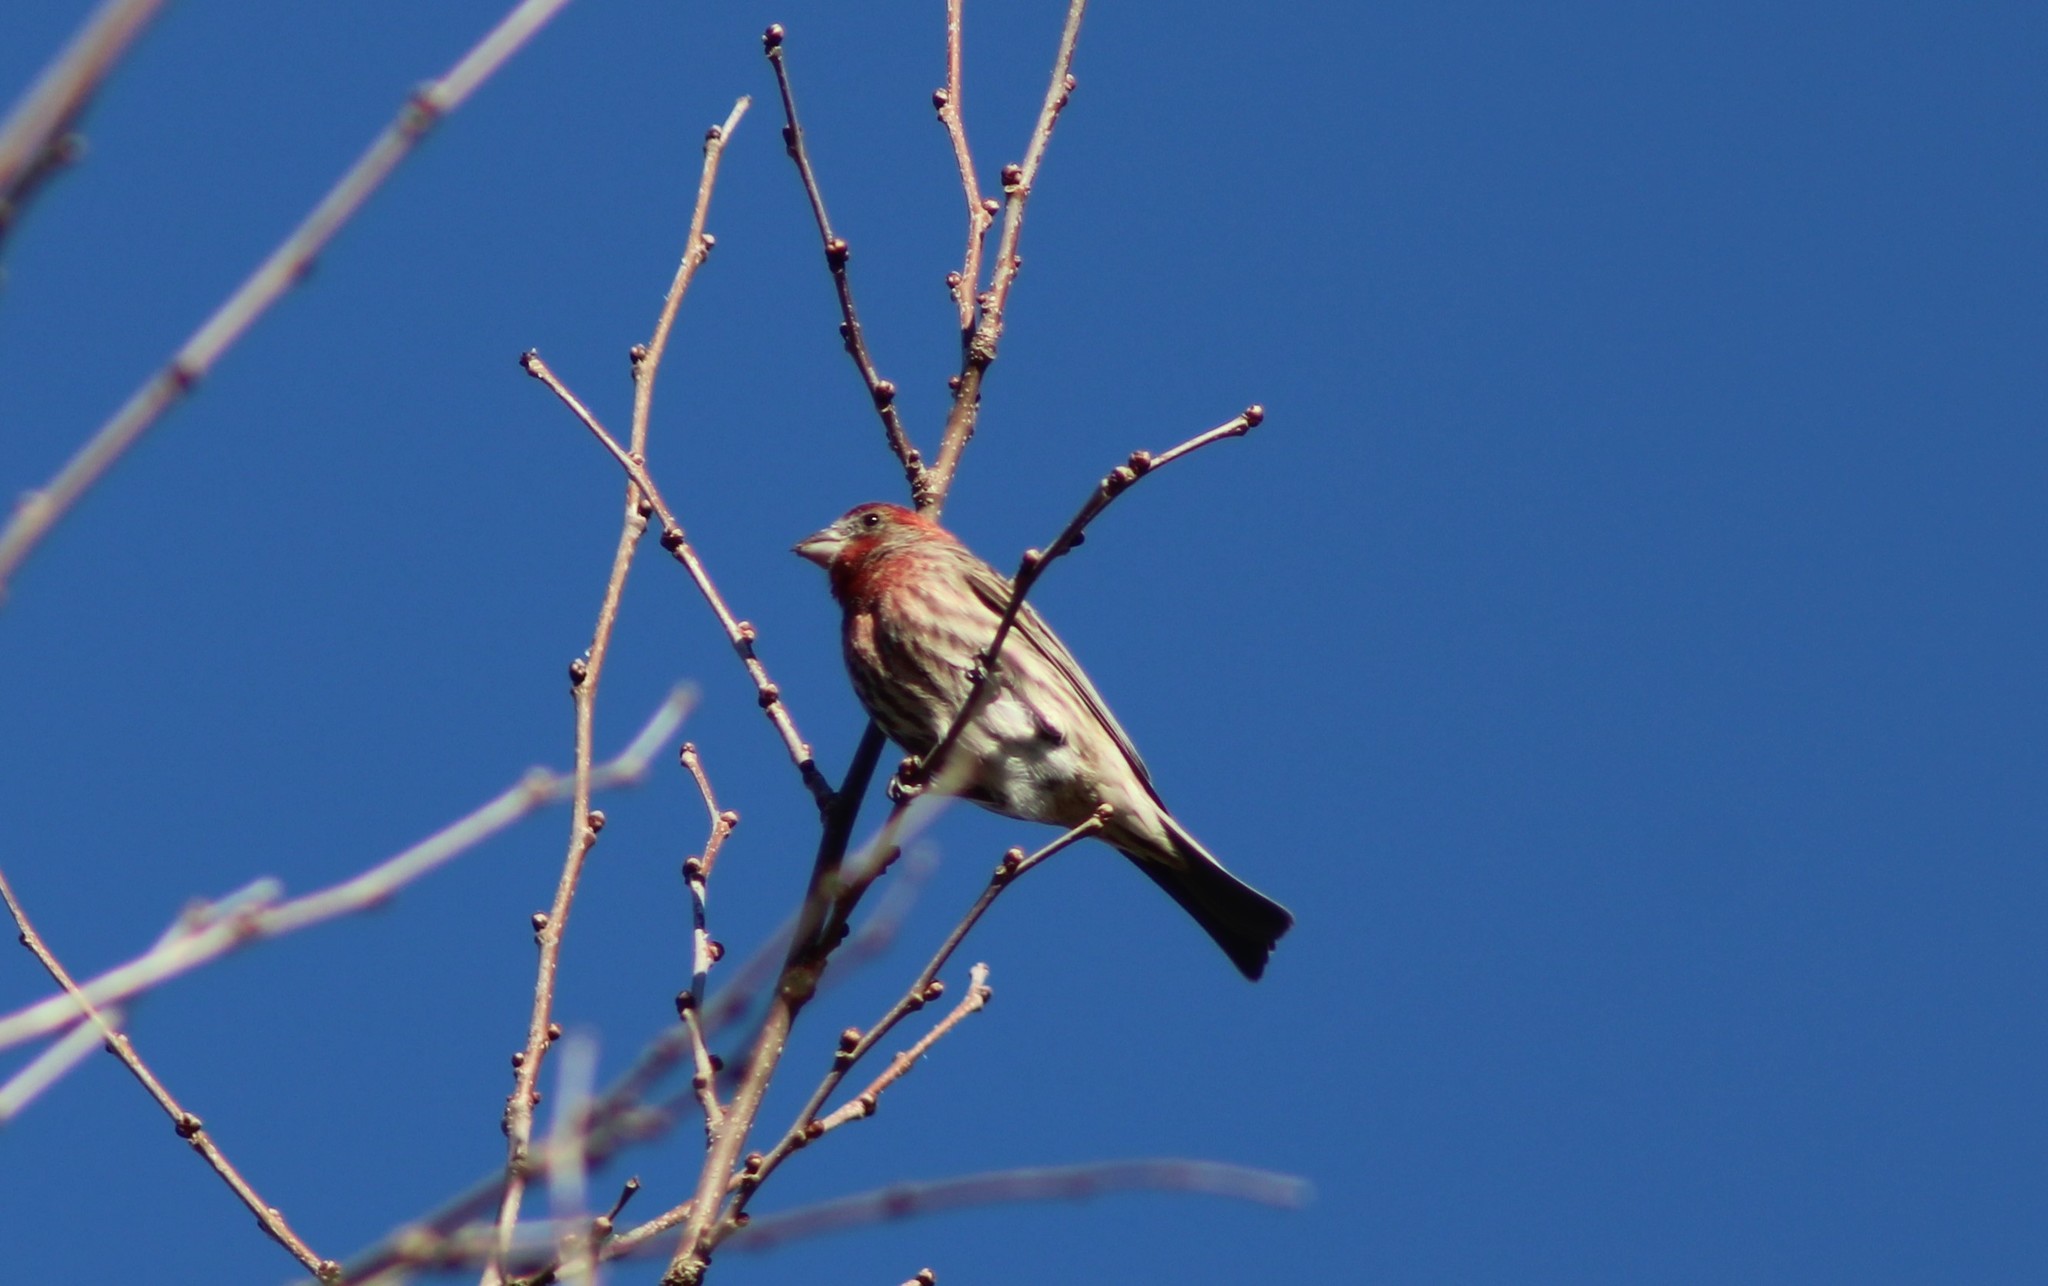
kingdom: Animalia
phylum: Chordata
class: Aves
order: Passeriformes
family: Fringillidae
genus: Haemorhous
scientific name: Haemorhous mexicanus
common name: House finch
